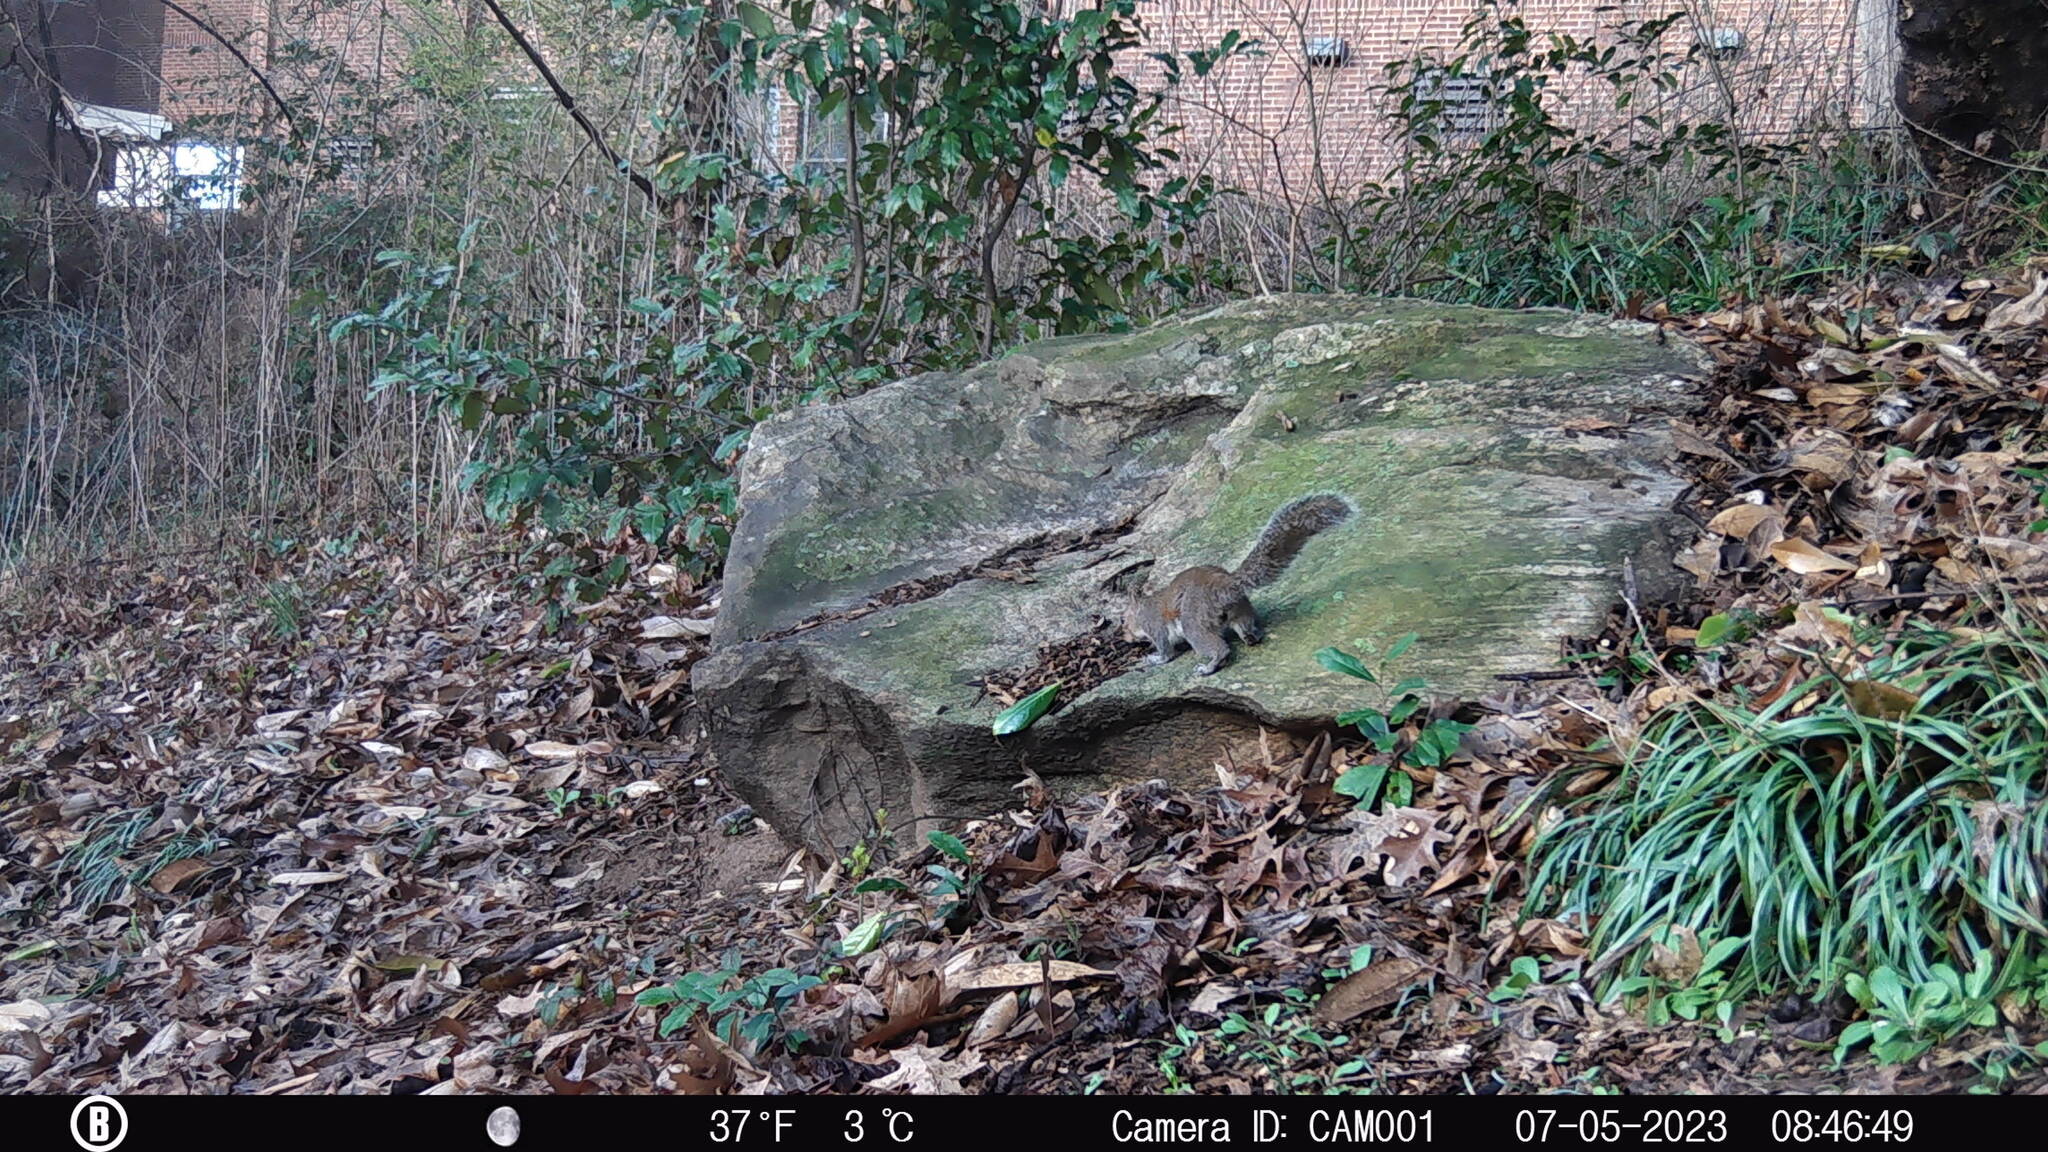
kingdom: Animalia
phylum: Chordata
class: Mammalia
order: Rodentia
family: Sciuridae
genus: Sciurus
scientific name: Sciurus carolinensis
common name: Eastern gray squirrel
